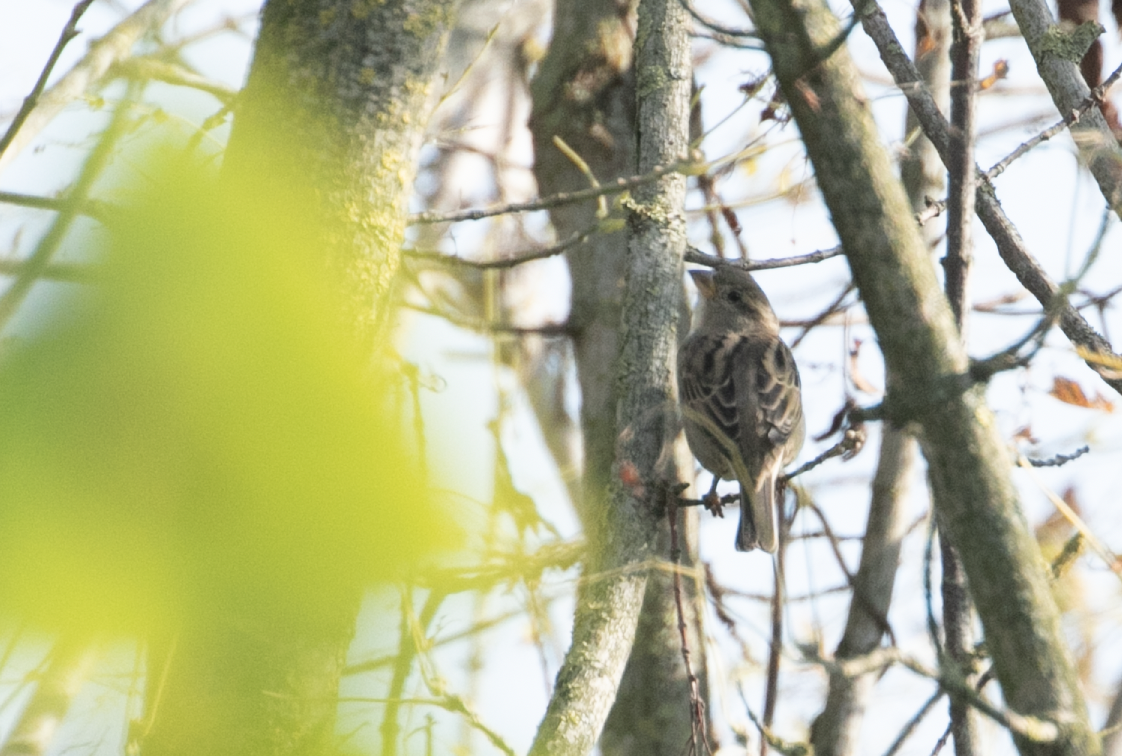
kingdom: Animalia
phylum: Chordata
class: Aves
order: Passeriformes
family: Passeridae
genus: Passer
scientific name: Passer italiae
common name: Italian sparrow
